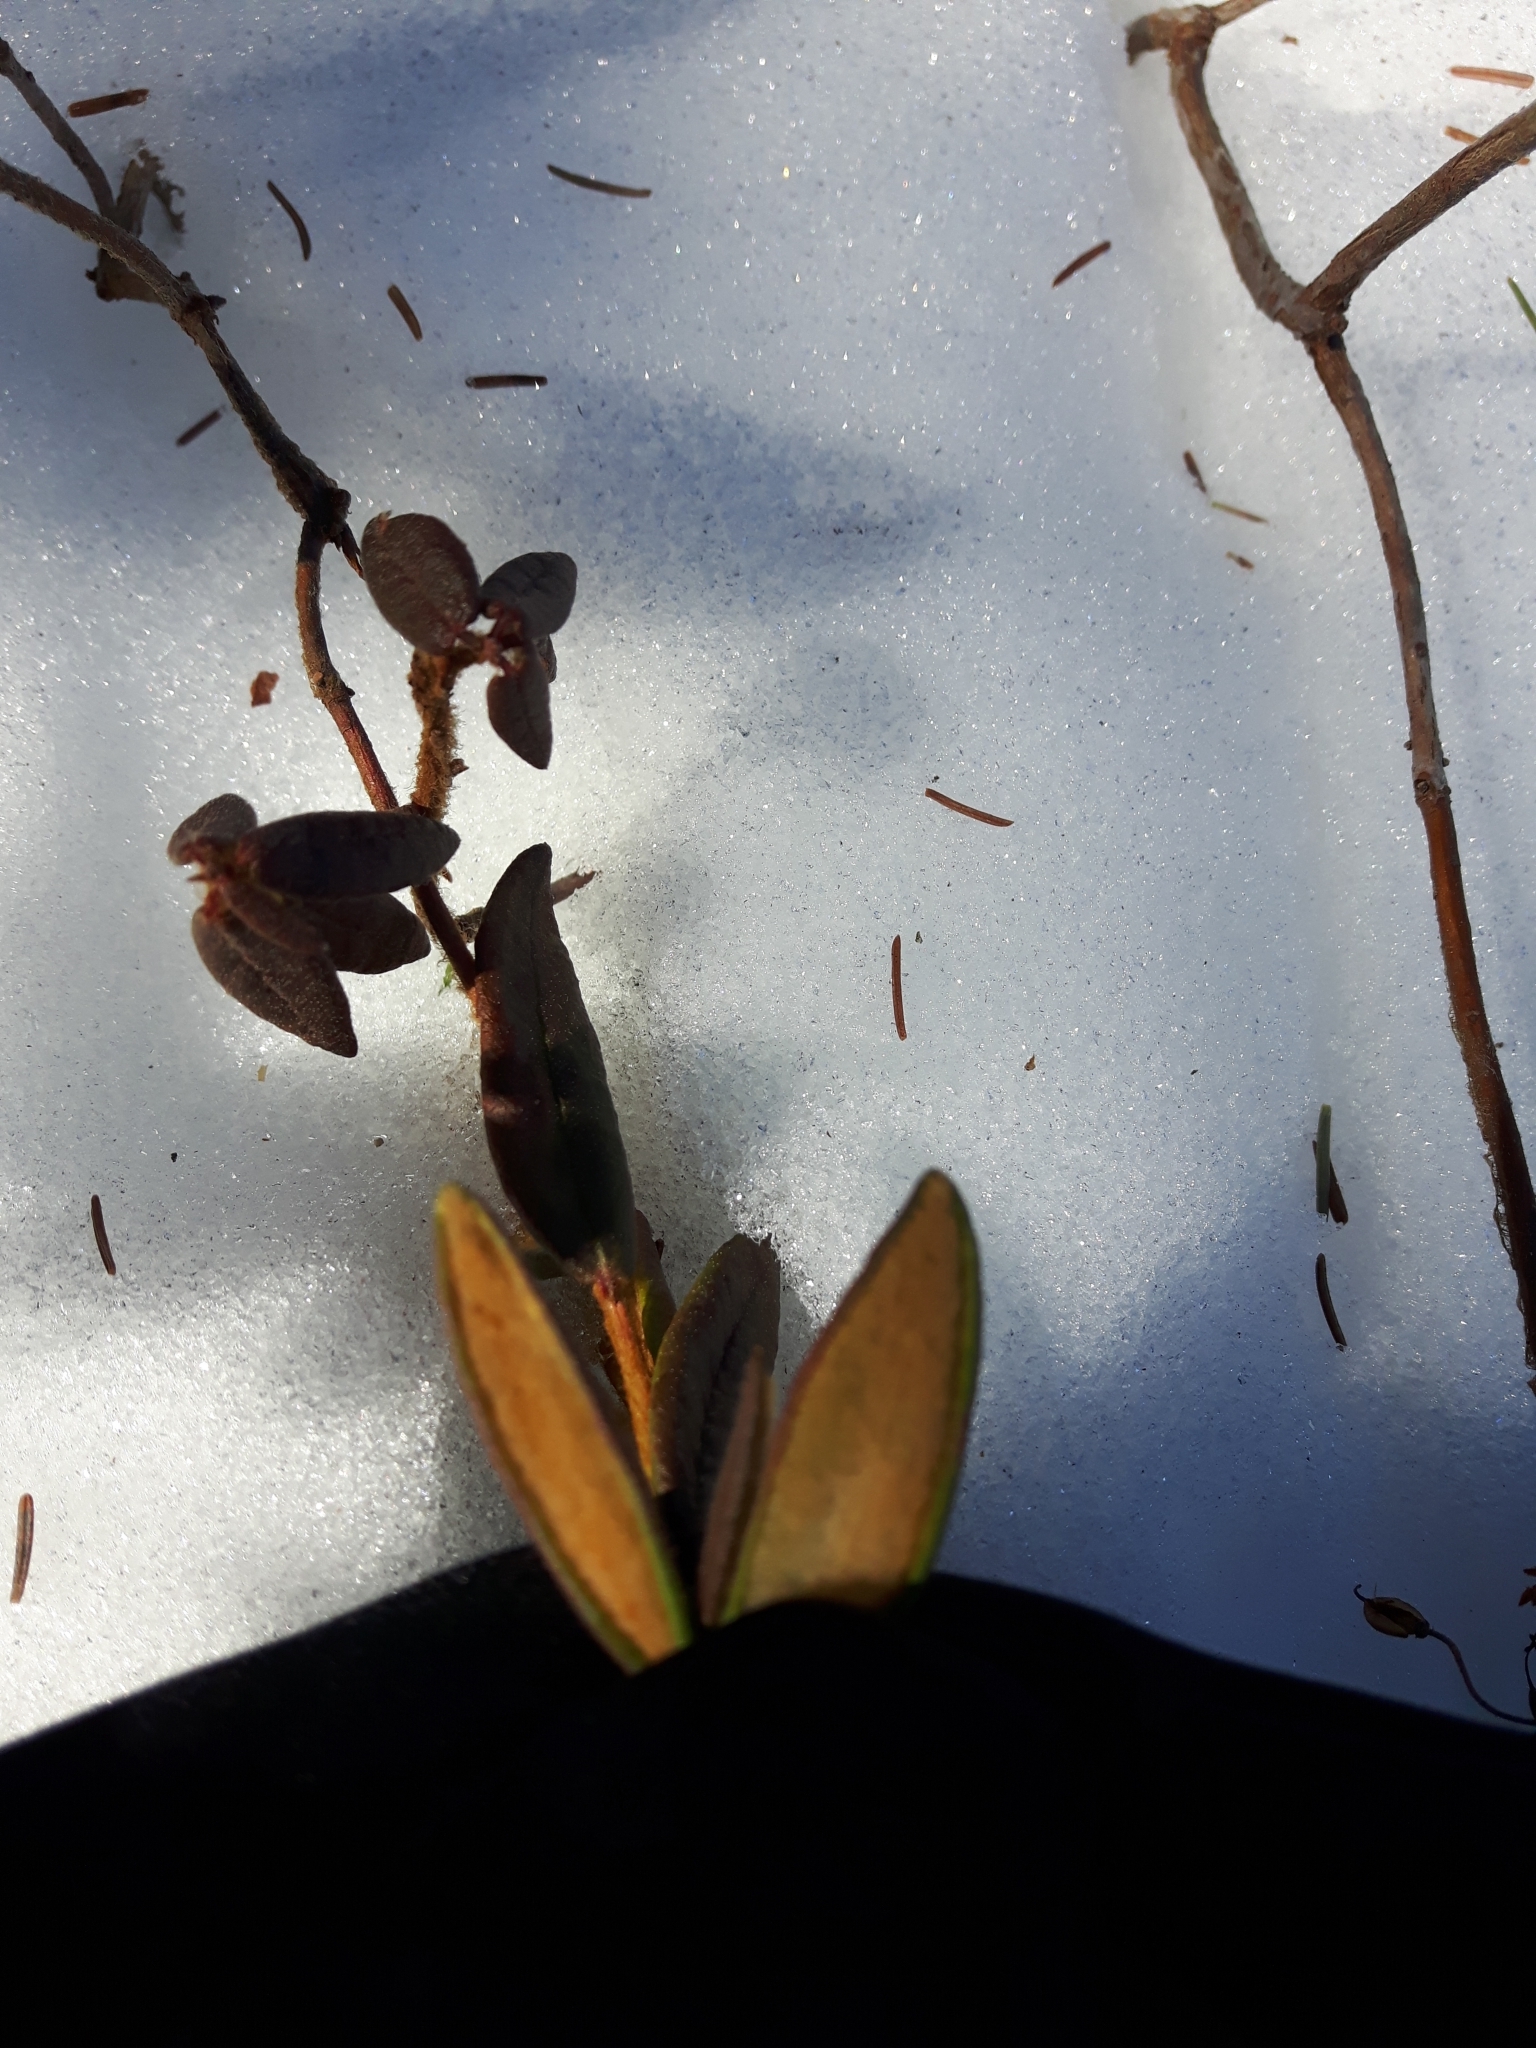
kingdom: Plantae
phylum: Tracheophyta
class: Magnoliopsida
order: Ericales
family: Ericaceae
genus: Rhododendron
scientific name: Rhododendron groenlandicum
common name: Bog labrador tea
